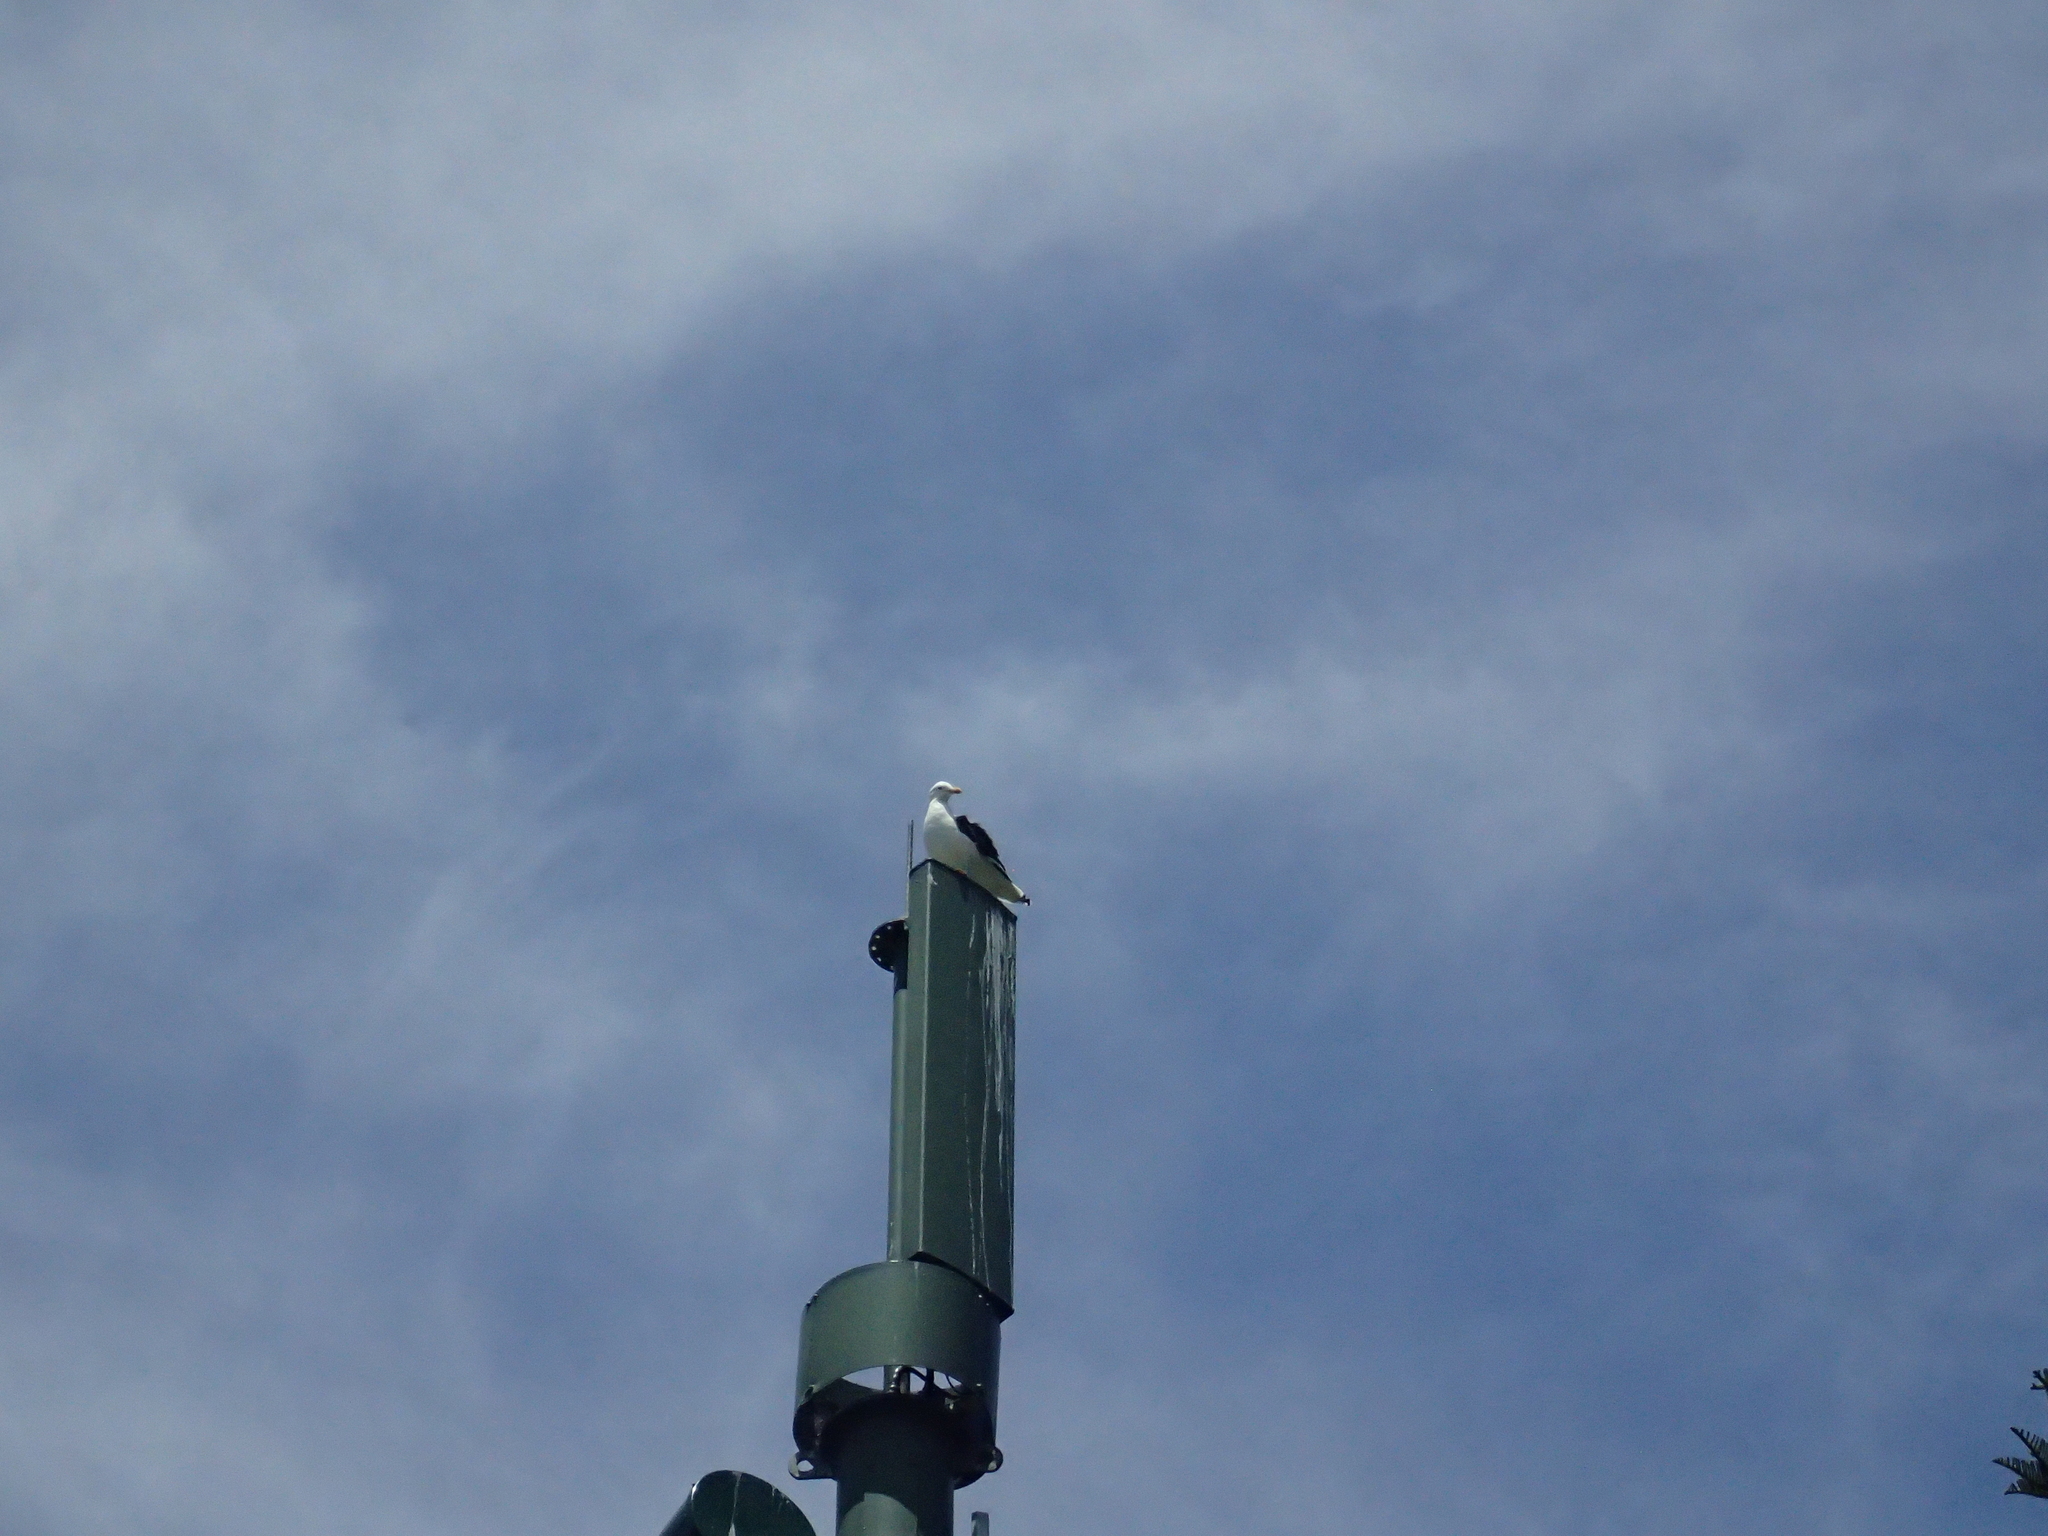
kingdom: Animalia
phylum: Chordata
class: Aves
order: Charadriiformes
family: Laridae
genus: Larus
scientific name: Larus dominicanus
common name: Kelp gull
